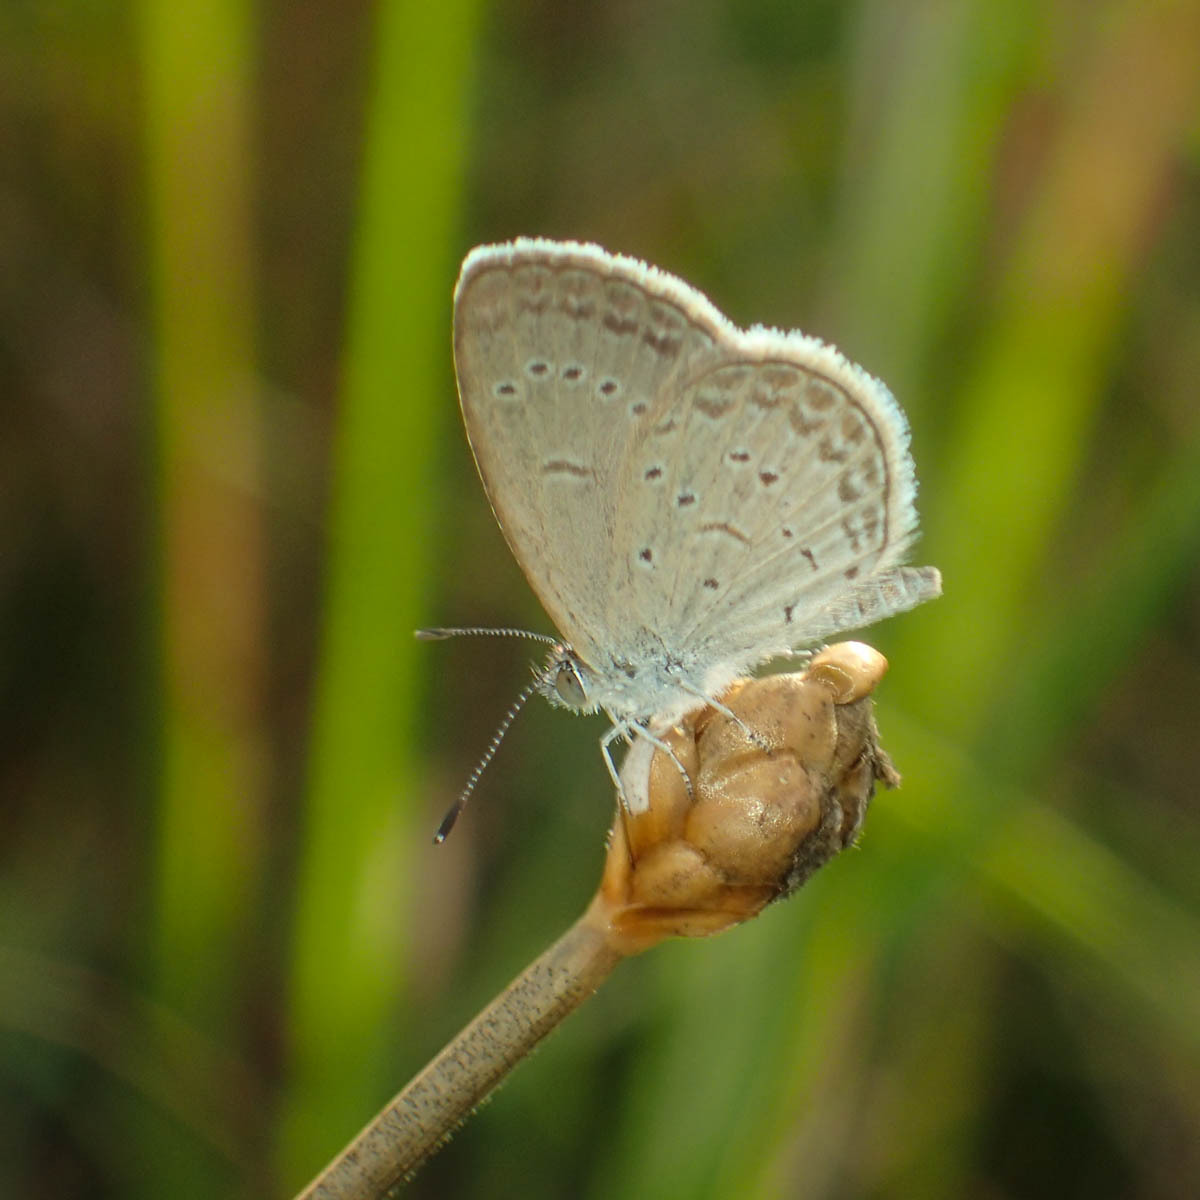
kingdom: Animalia
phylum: Arthropoda
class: Insecta
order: Lepidoptera
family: Lycaenidae
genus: Zizina
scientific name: Zizina otis
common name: Lesser grass blue
